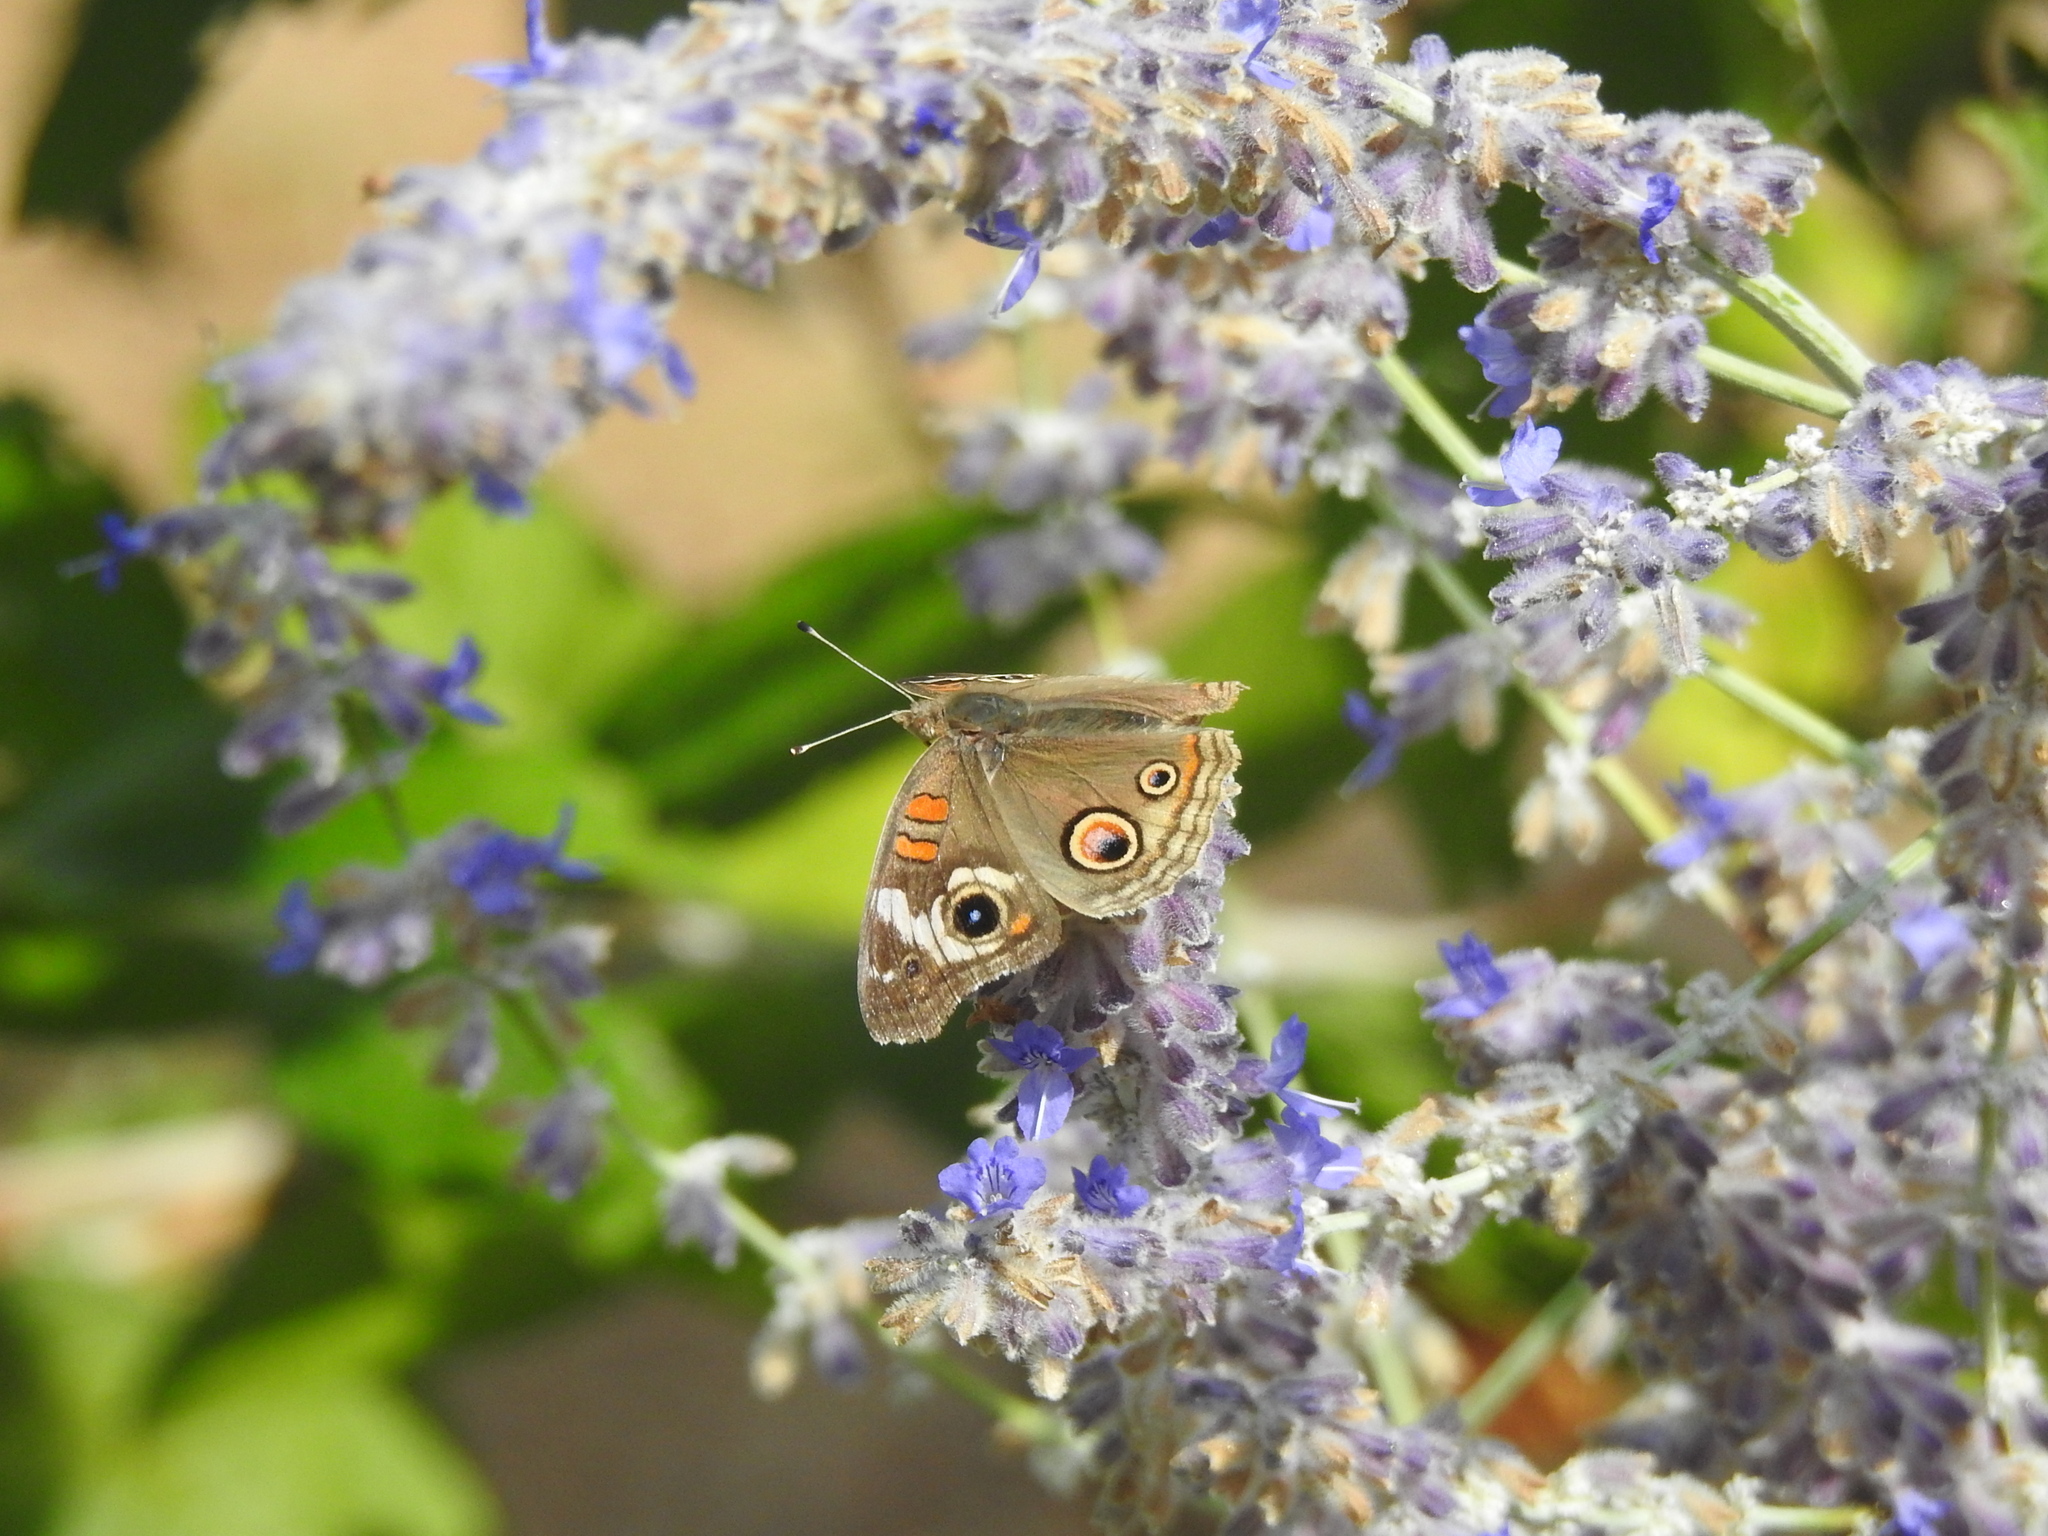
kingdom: Animalia
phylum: Arthropoda
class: Insecta
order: Lepidoptera
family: Nymphalidae
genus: Junonia
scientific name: Junonia grisea
